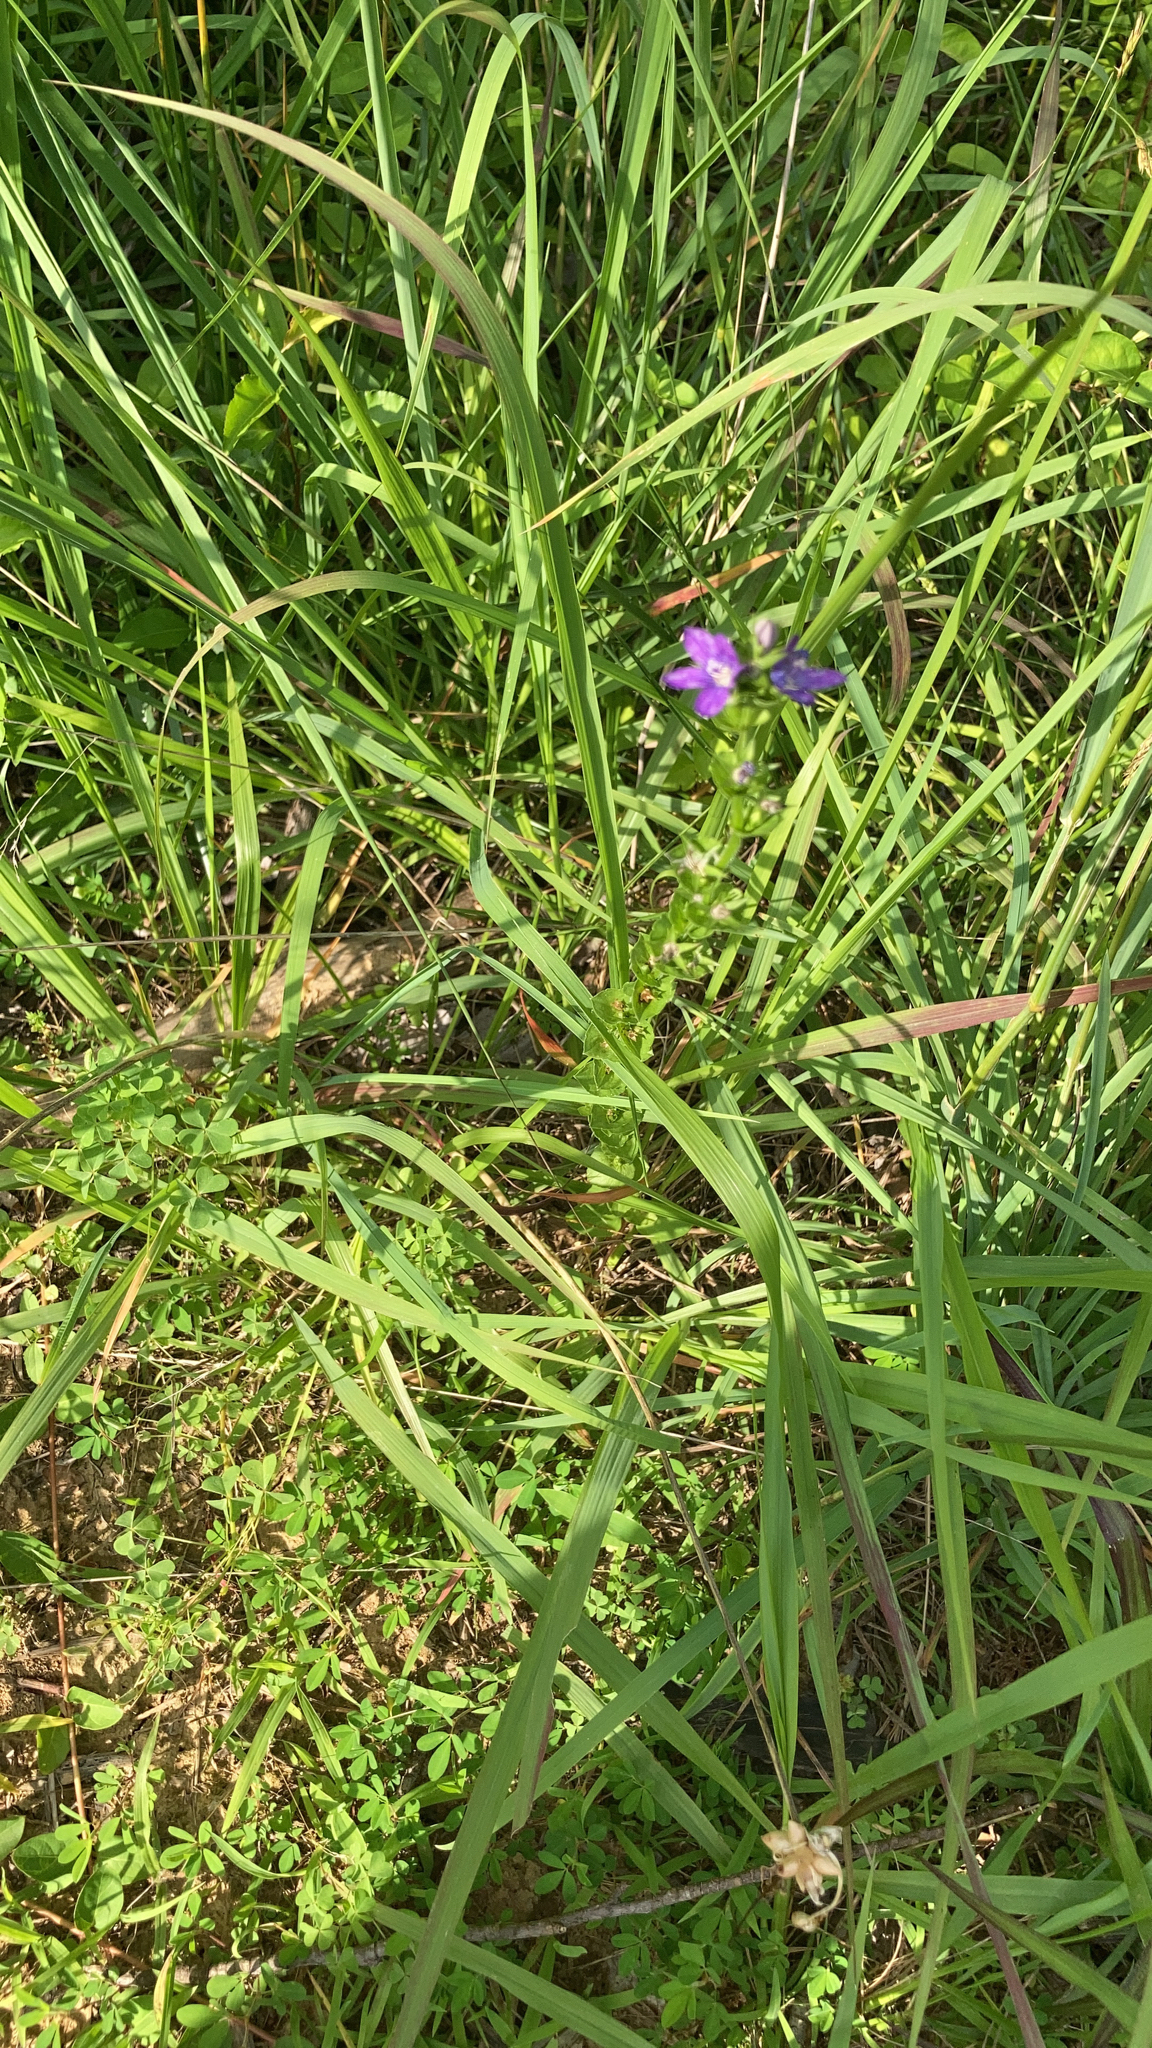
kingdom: Plantae
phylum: Tracheophyta
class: Magnoliopsida
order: Asterales
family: Campanulaceae
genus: Triodanis
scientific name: Triodanis perfoliata
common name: Clasping venus' looking-glass
